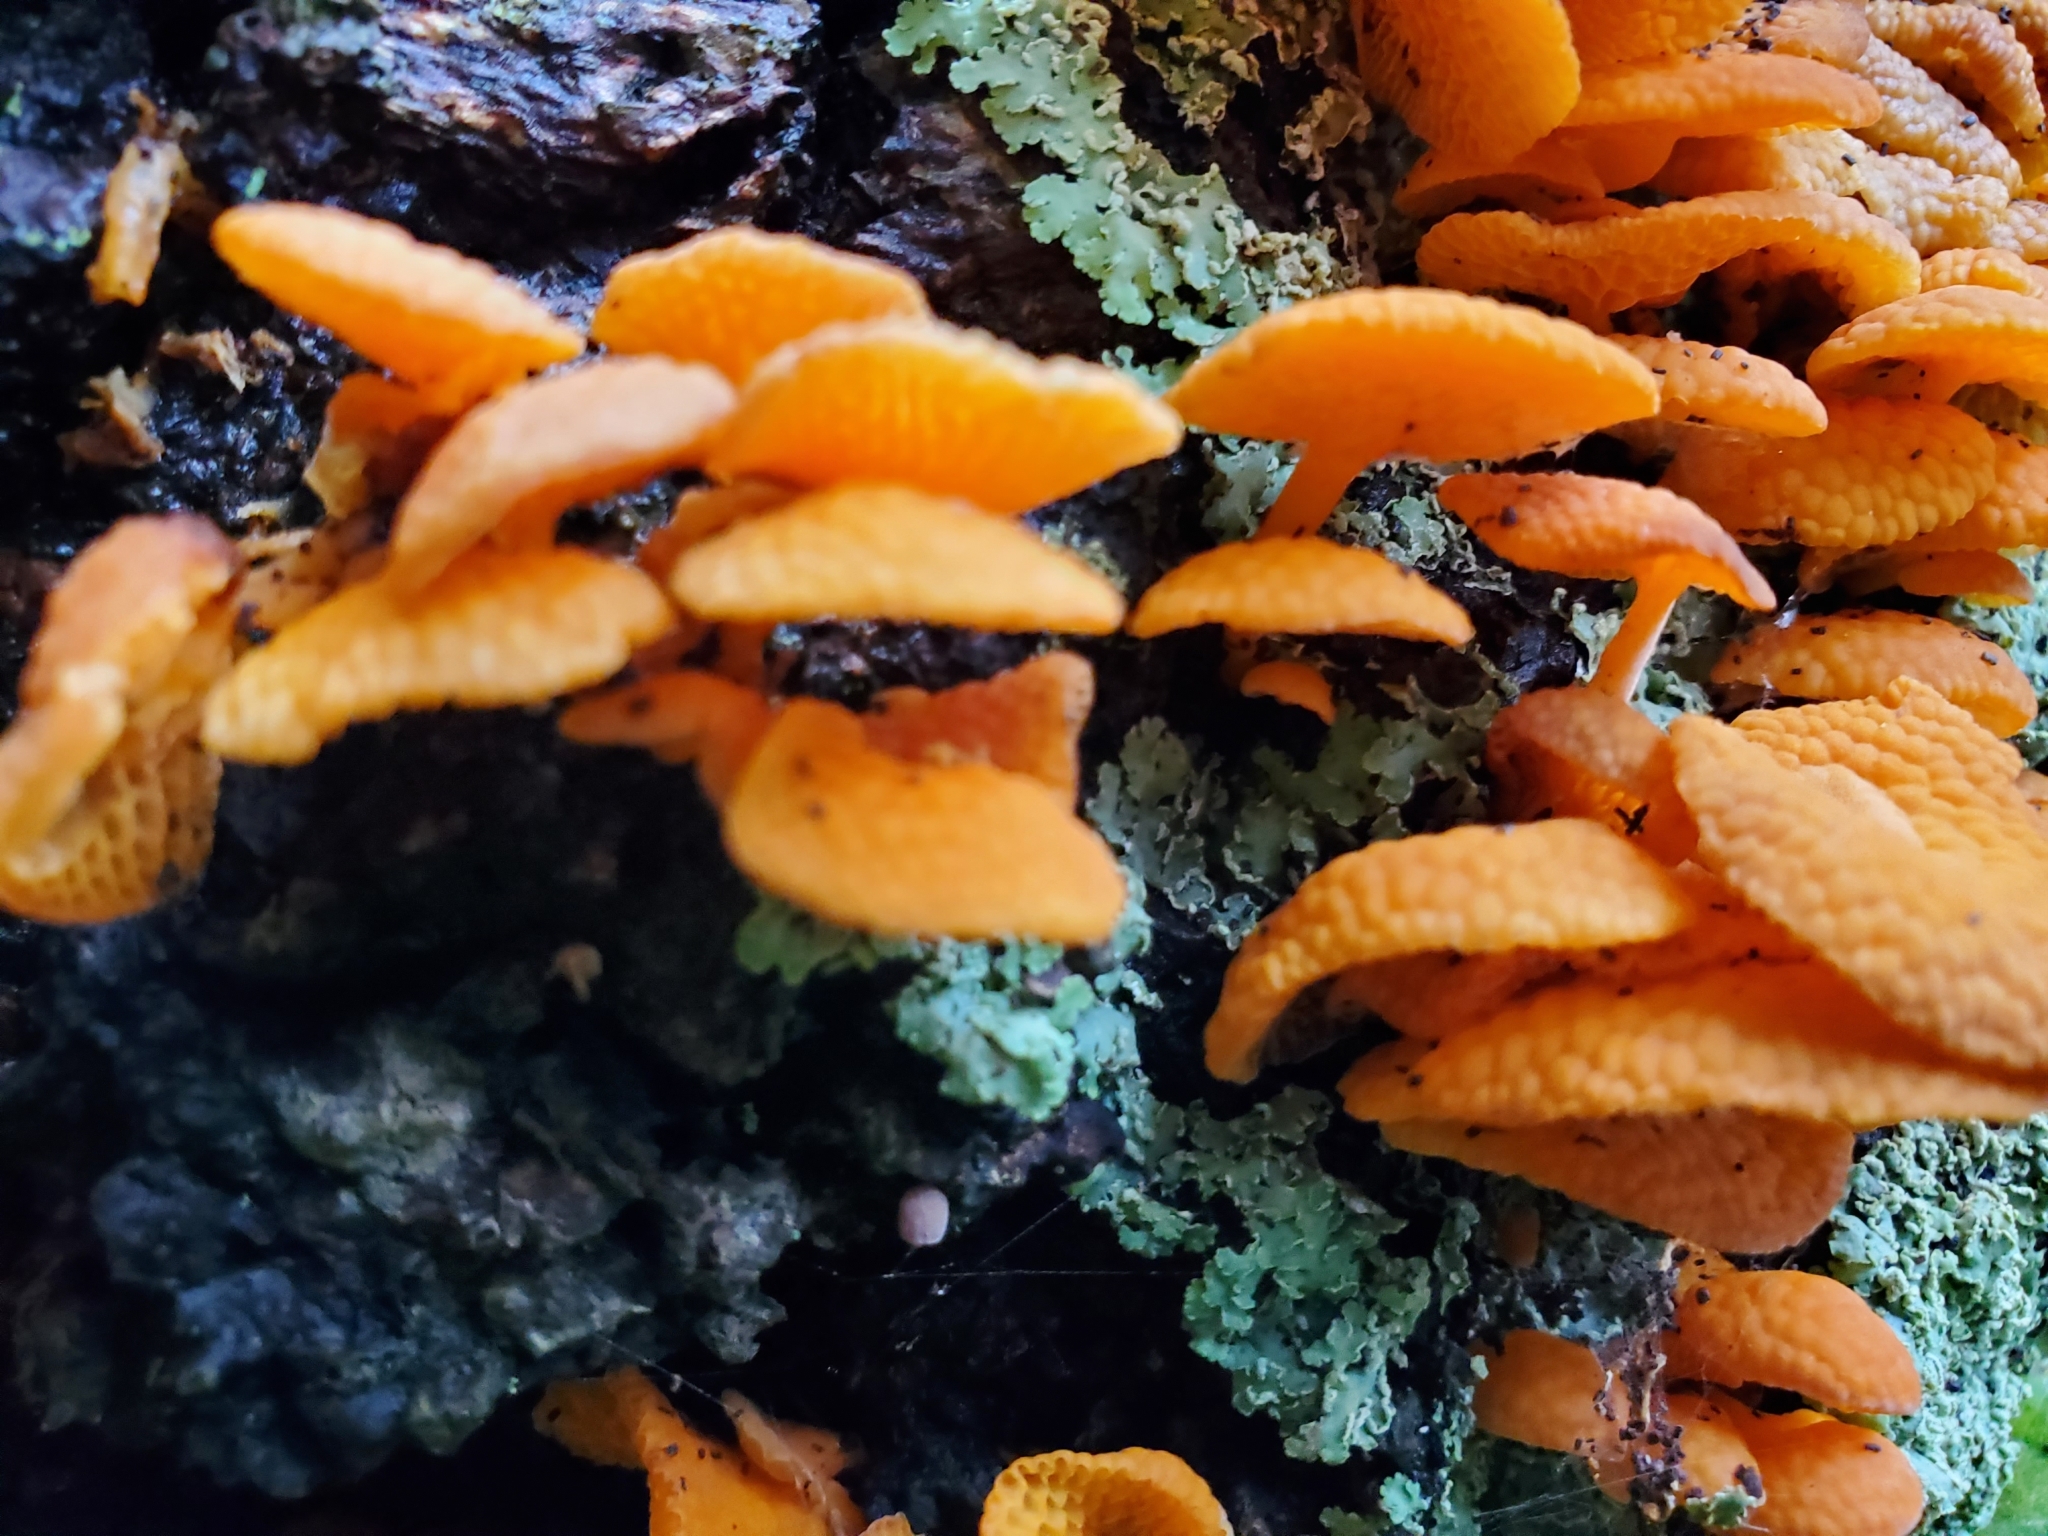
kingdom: Fungi
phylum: Basidiomycota
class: Agaricomycetes
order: Agaricales
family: Mycenaceae
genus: Favolaschia
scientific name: Favolaschia claudopus
